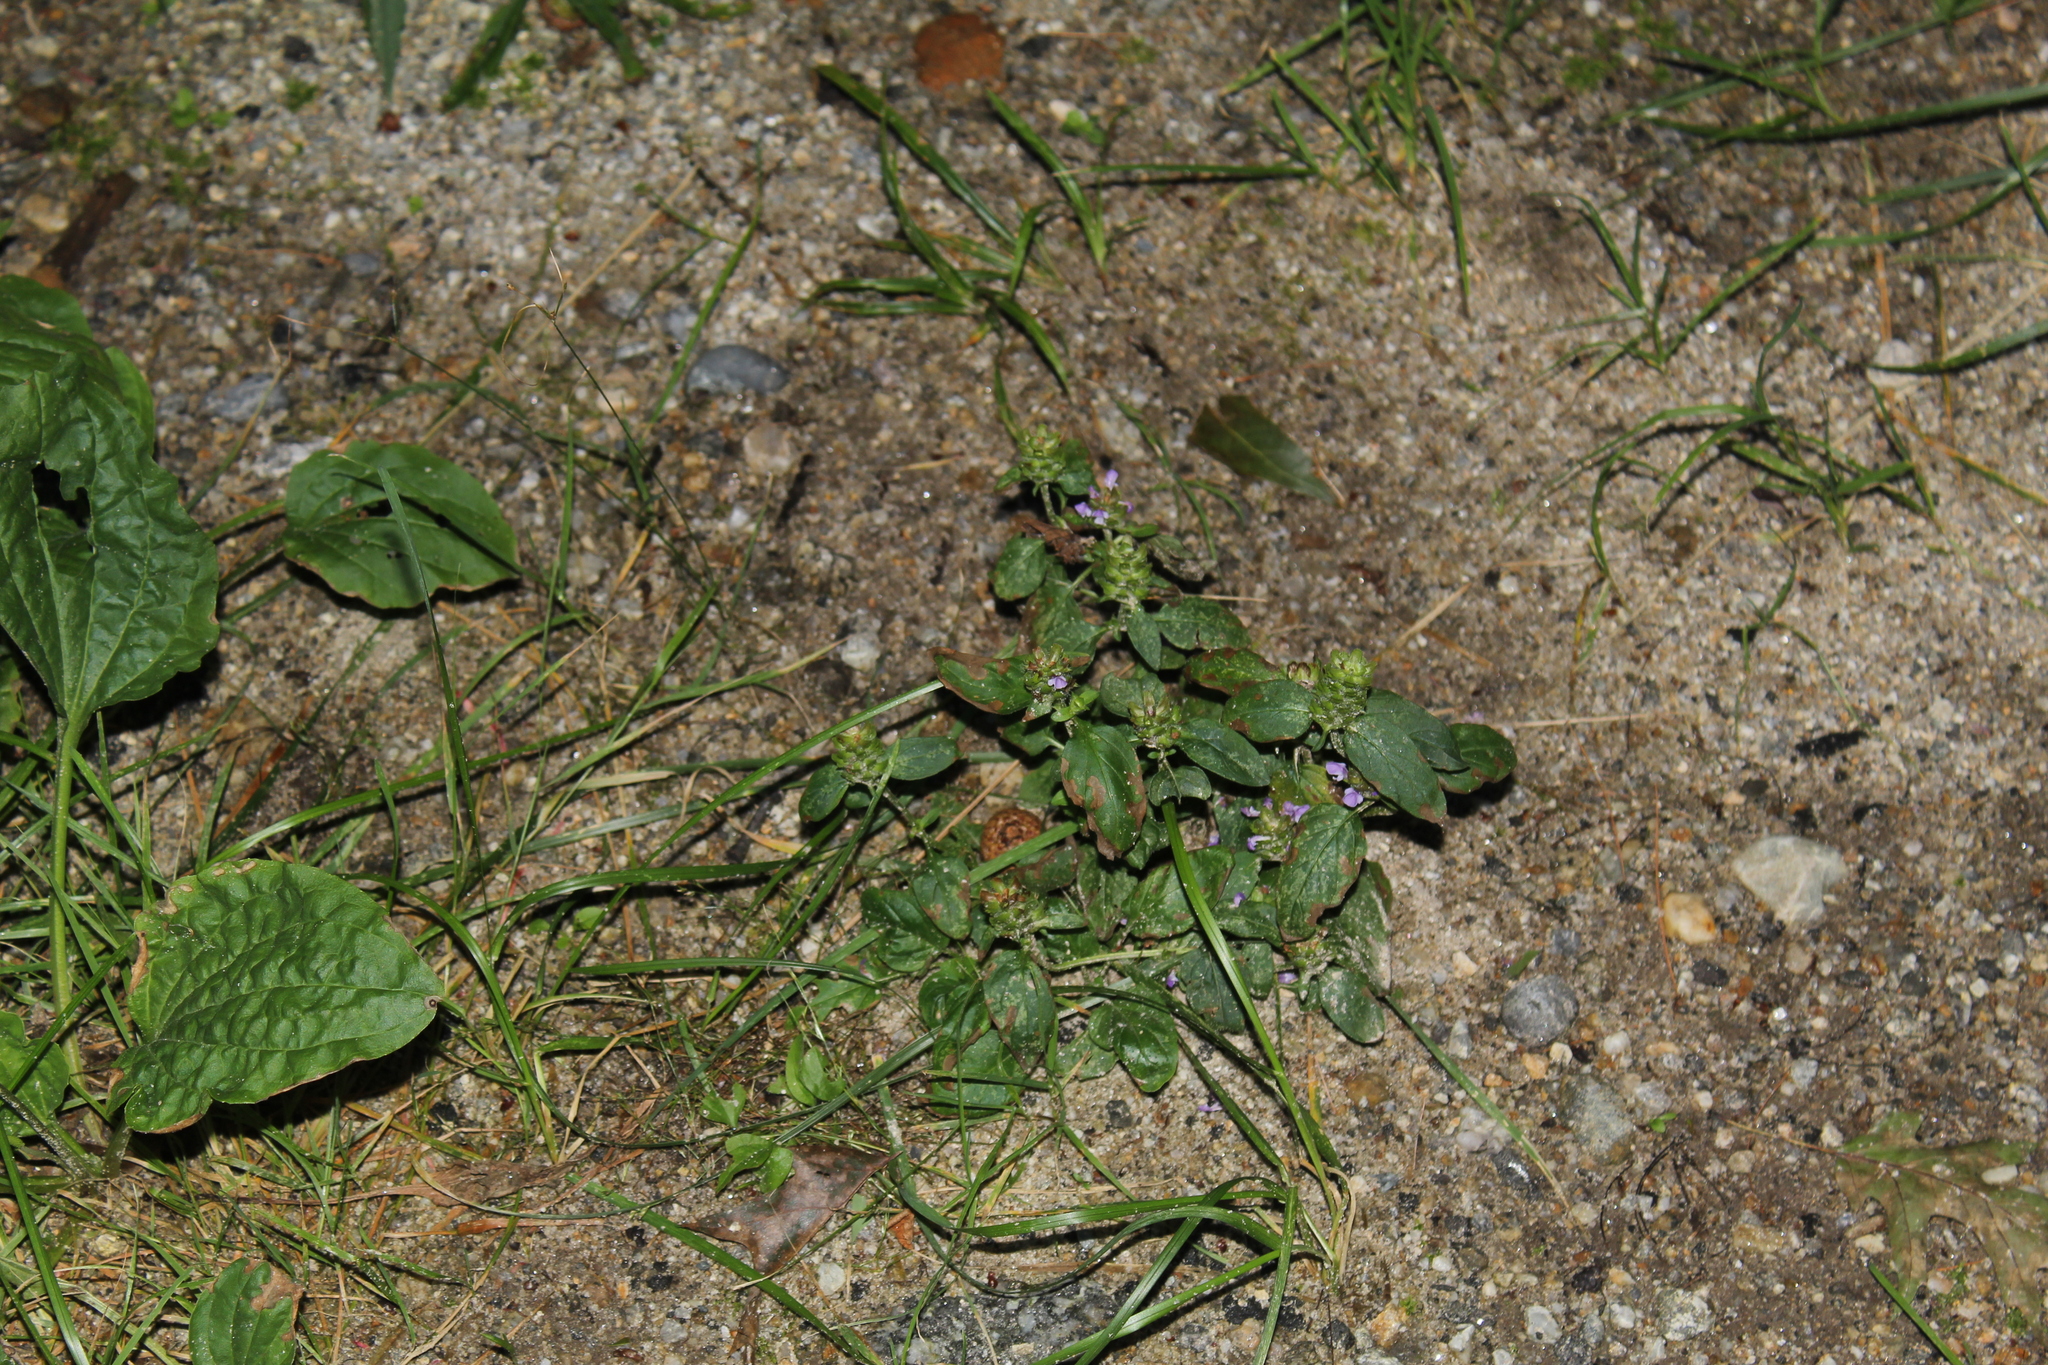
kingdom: Plantae
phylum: Tracheophyta
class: Magnoliopsida
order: Lamiales
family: Lamiaceae
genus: Prunella
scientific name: Prunella vulgaris
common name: Heal-all
